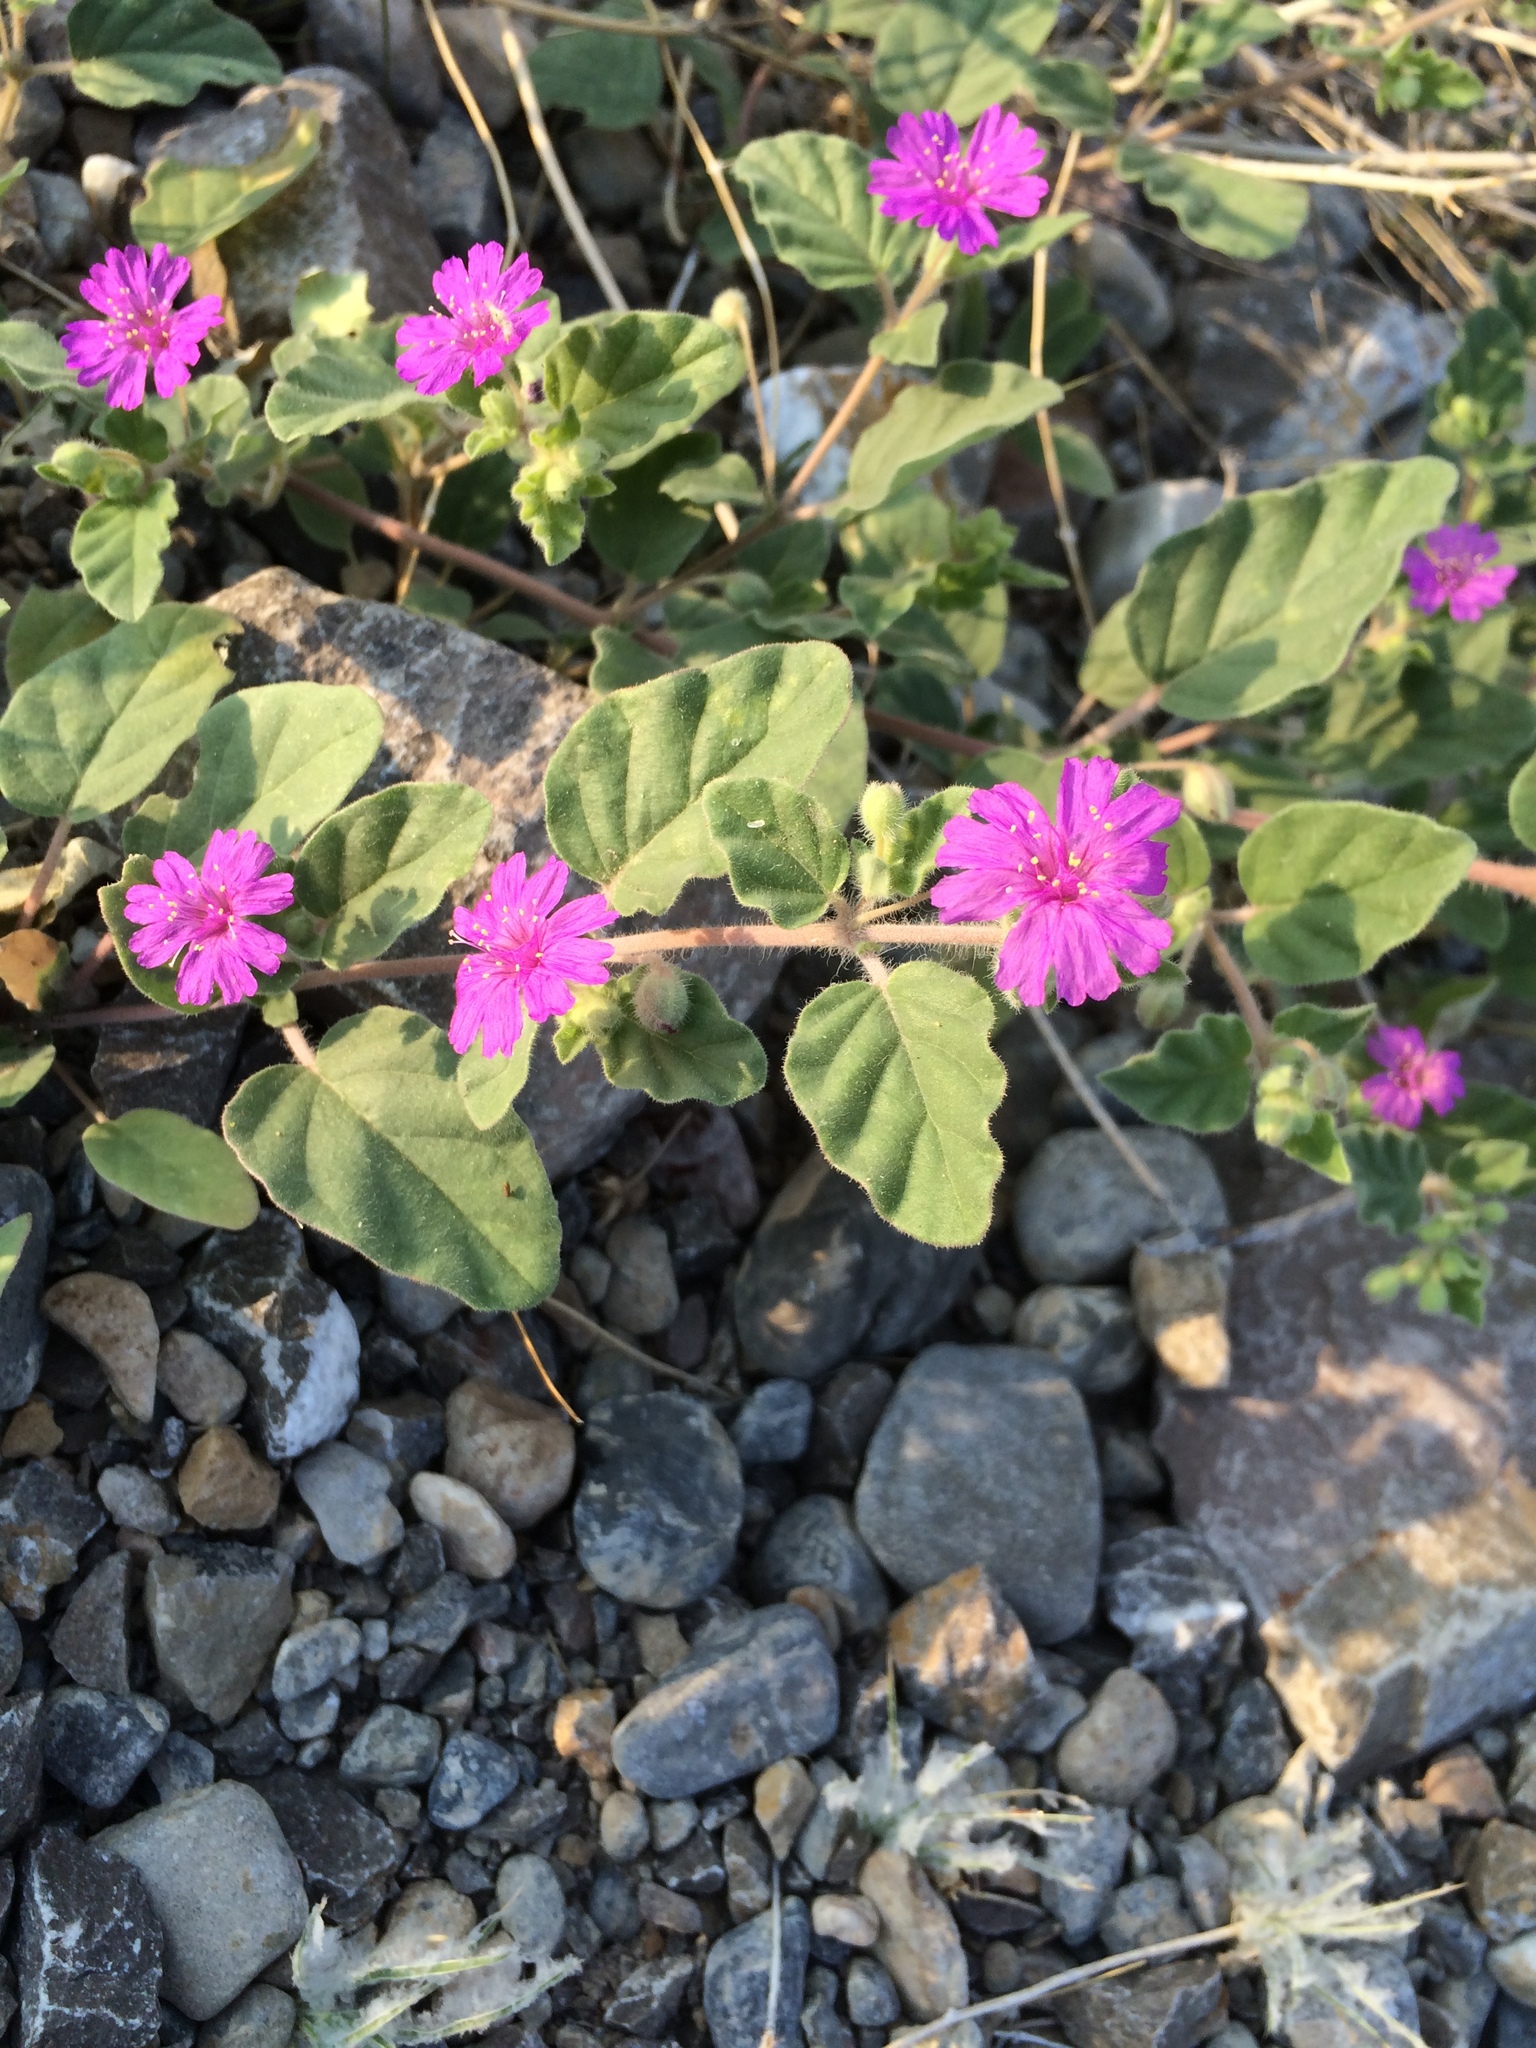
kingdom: Plantae
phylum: Tracheophyta
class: Magnoliopsida
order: Caryophyllales
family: Nyctaginaceae
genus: Allionia
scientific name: Allionia incarnata
